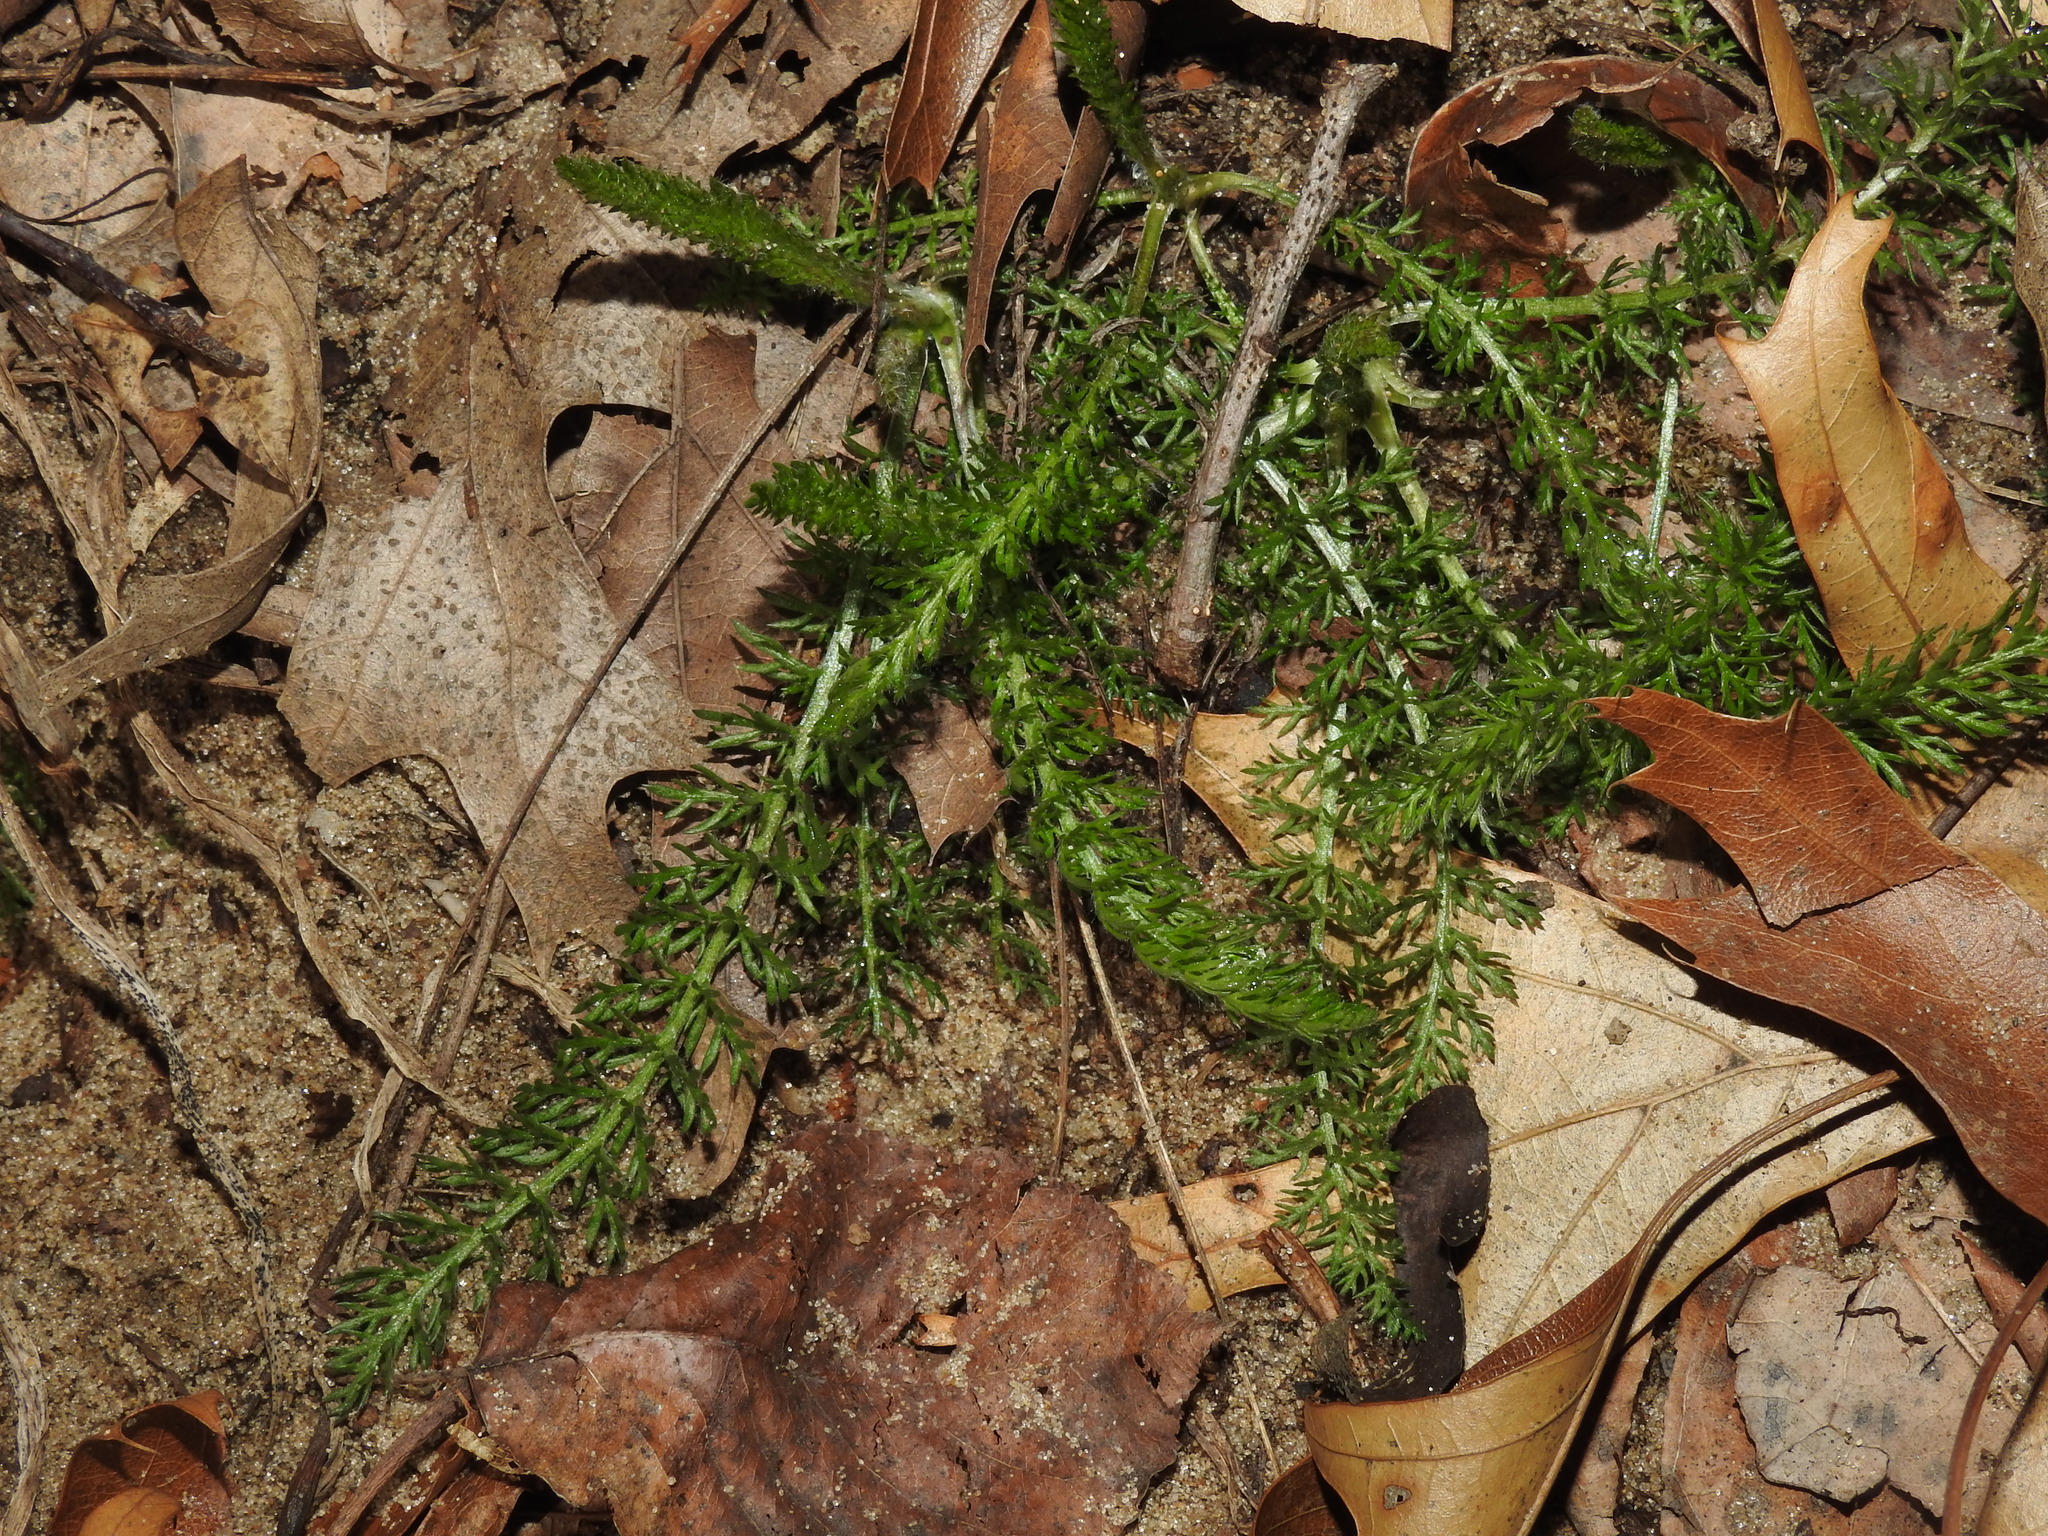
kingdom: Plantae
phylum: Tracheophyta
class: Magnoliopsida
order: Asterales
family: Asteraceae
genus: Achillea
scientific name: Achillea millefolium
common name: Yarrow
